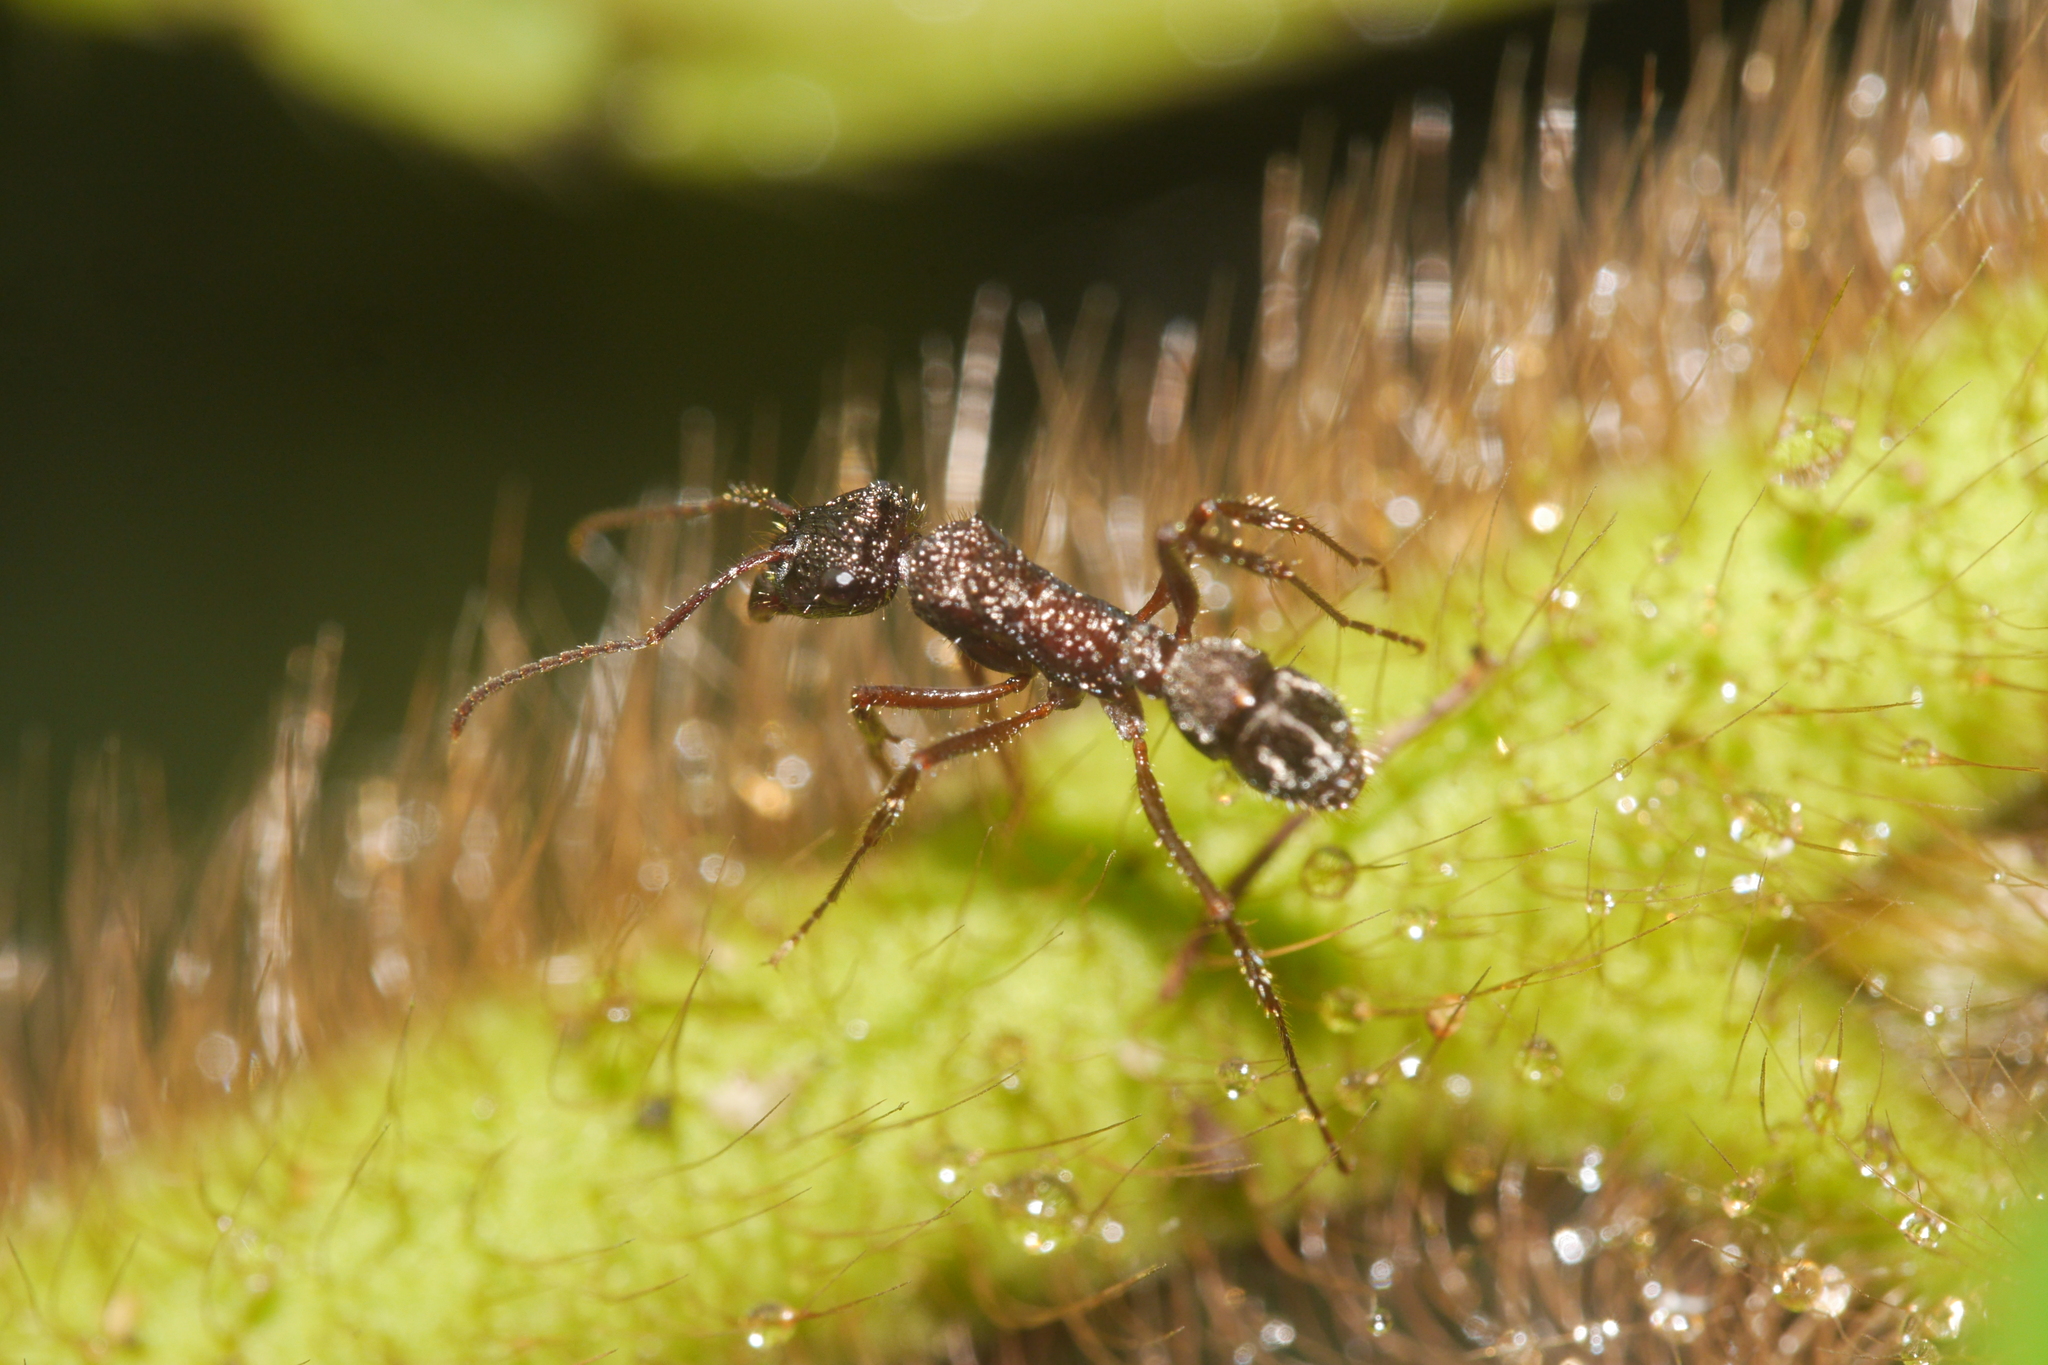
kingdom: Animalia
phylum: Arthropoda
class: Insecta
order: Hymenoptera
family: Formicidae
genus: Ectatomma
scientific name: Ectatomma ruidum
